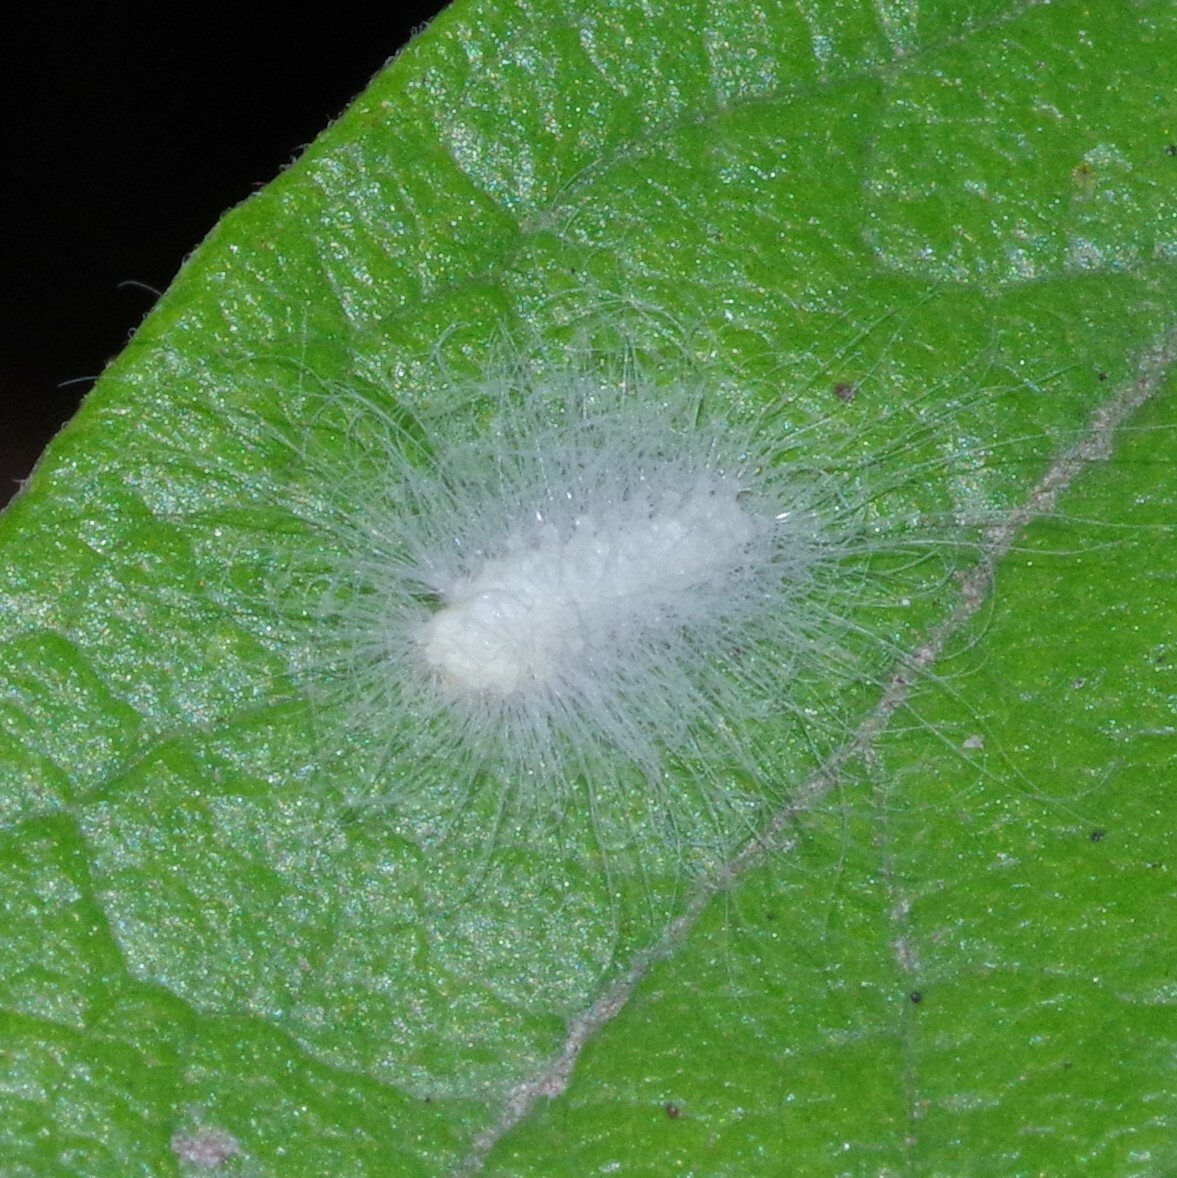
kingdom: Animalia
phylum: Arthropoda
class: Insecta
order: Lepidoptera
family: Megalopygidae
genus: Megalopyge
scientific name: Megalopyge crispata
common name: Black-waved flannel moth
